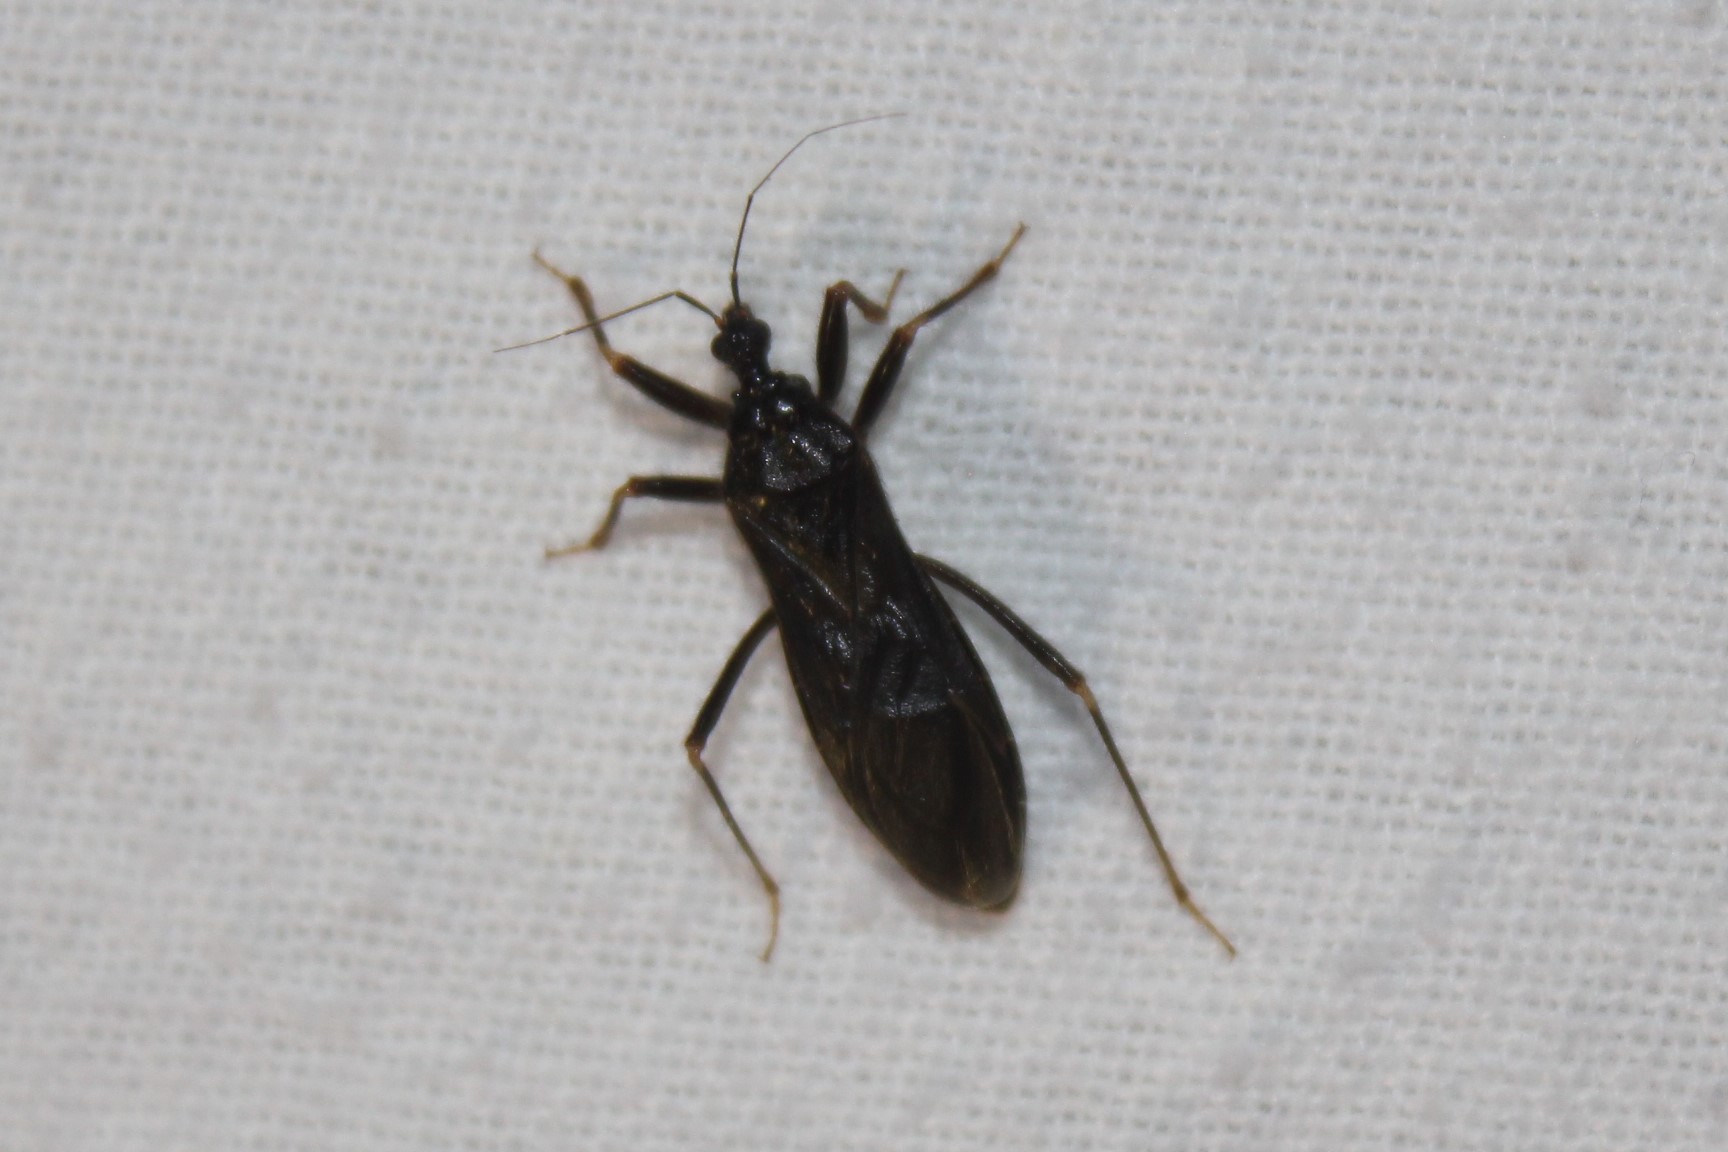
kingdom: Animalia
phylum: Arthropoda
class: Insecta
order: Hemiptera
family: Reduviidae
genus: Reduvius
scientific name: Reduvius personatus
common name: Masked hunter
